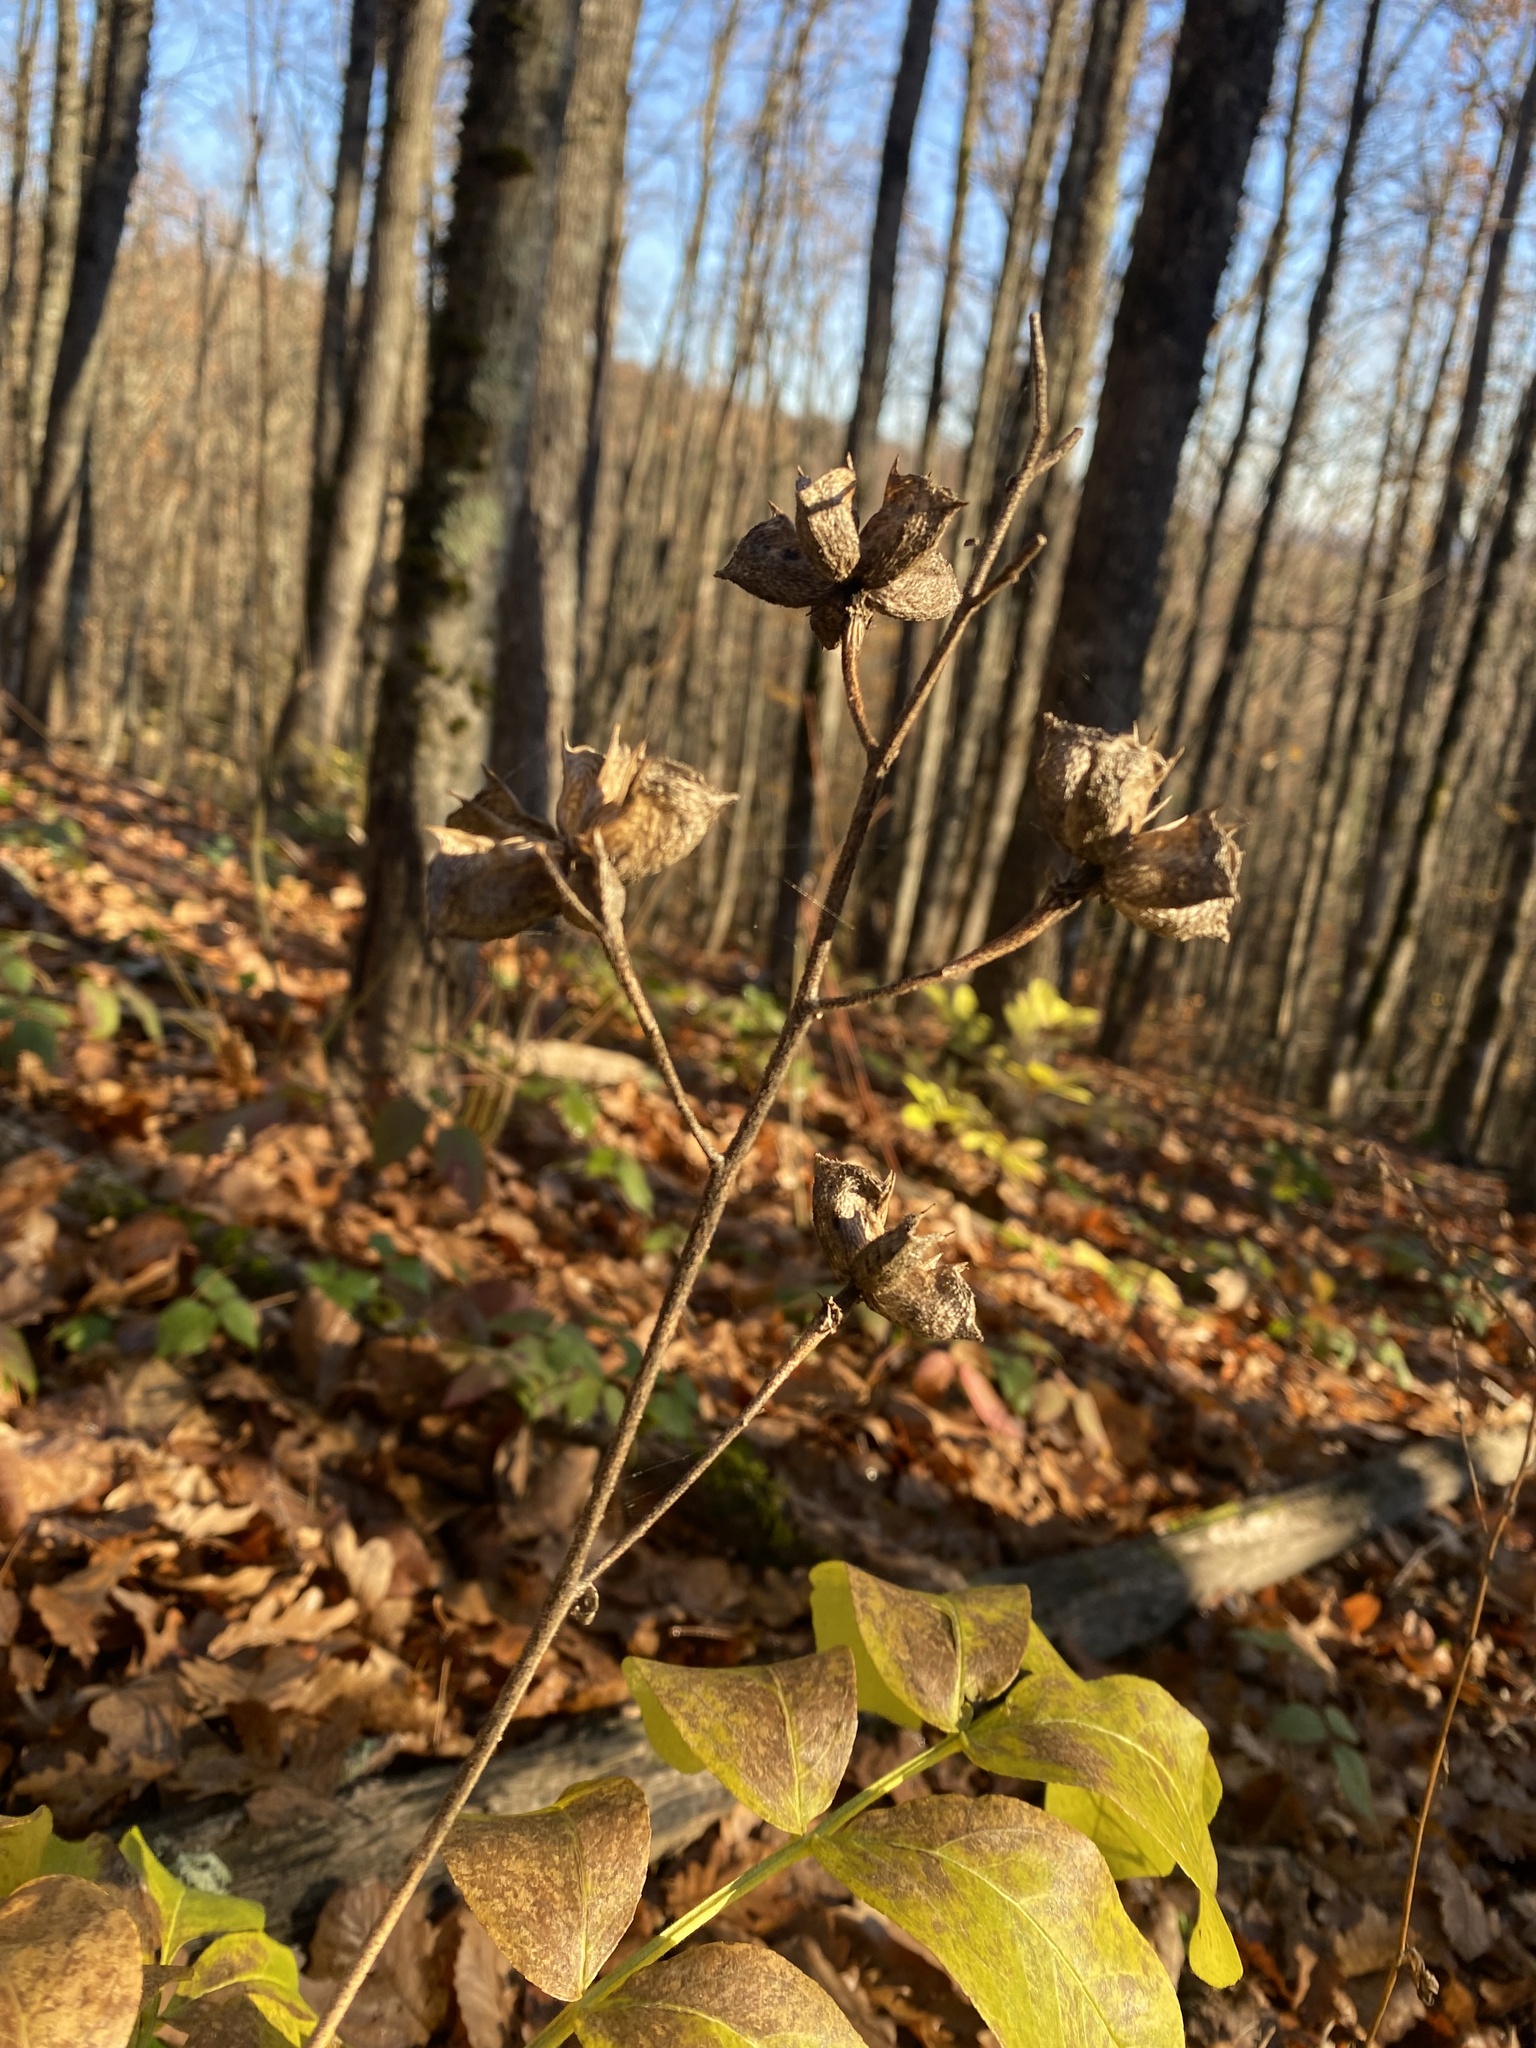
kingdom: Plantae
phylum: Tracheophyta
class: Magnoliopsida
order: Sapindales
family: Rutaceae
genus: Dictamnus
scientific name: Dictamnus albus
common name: Gasplant
